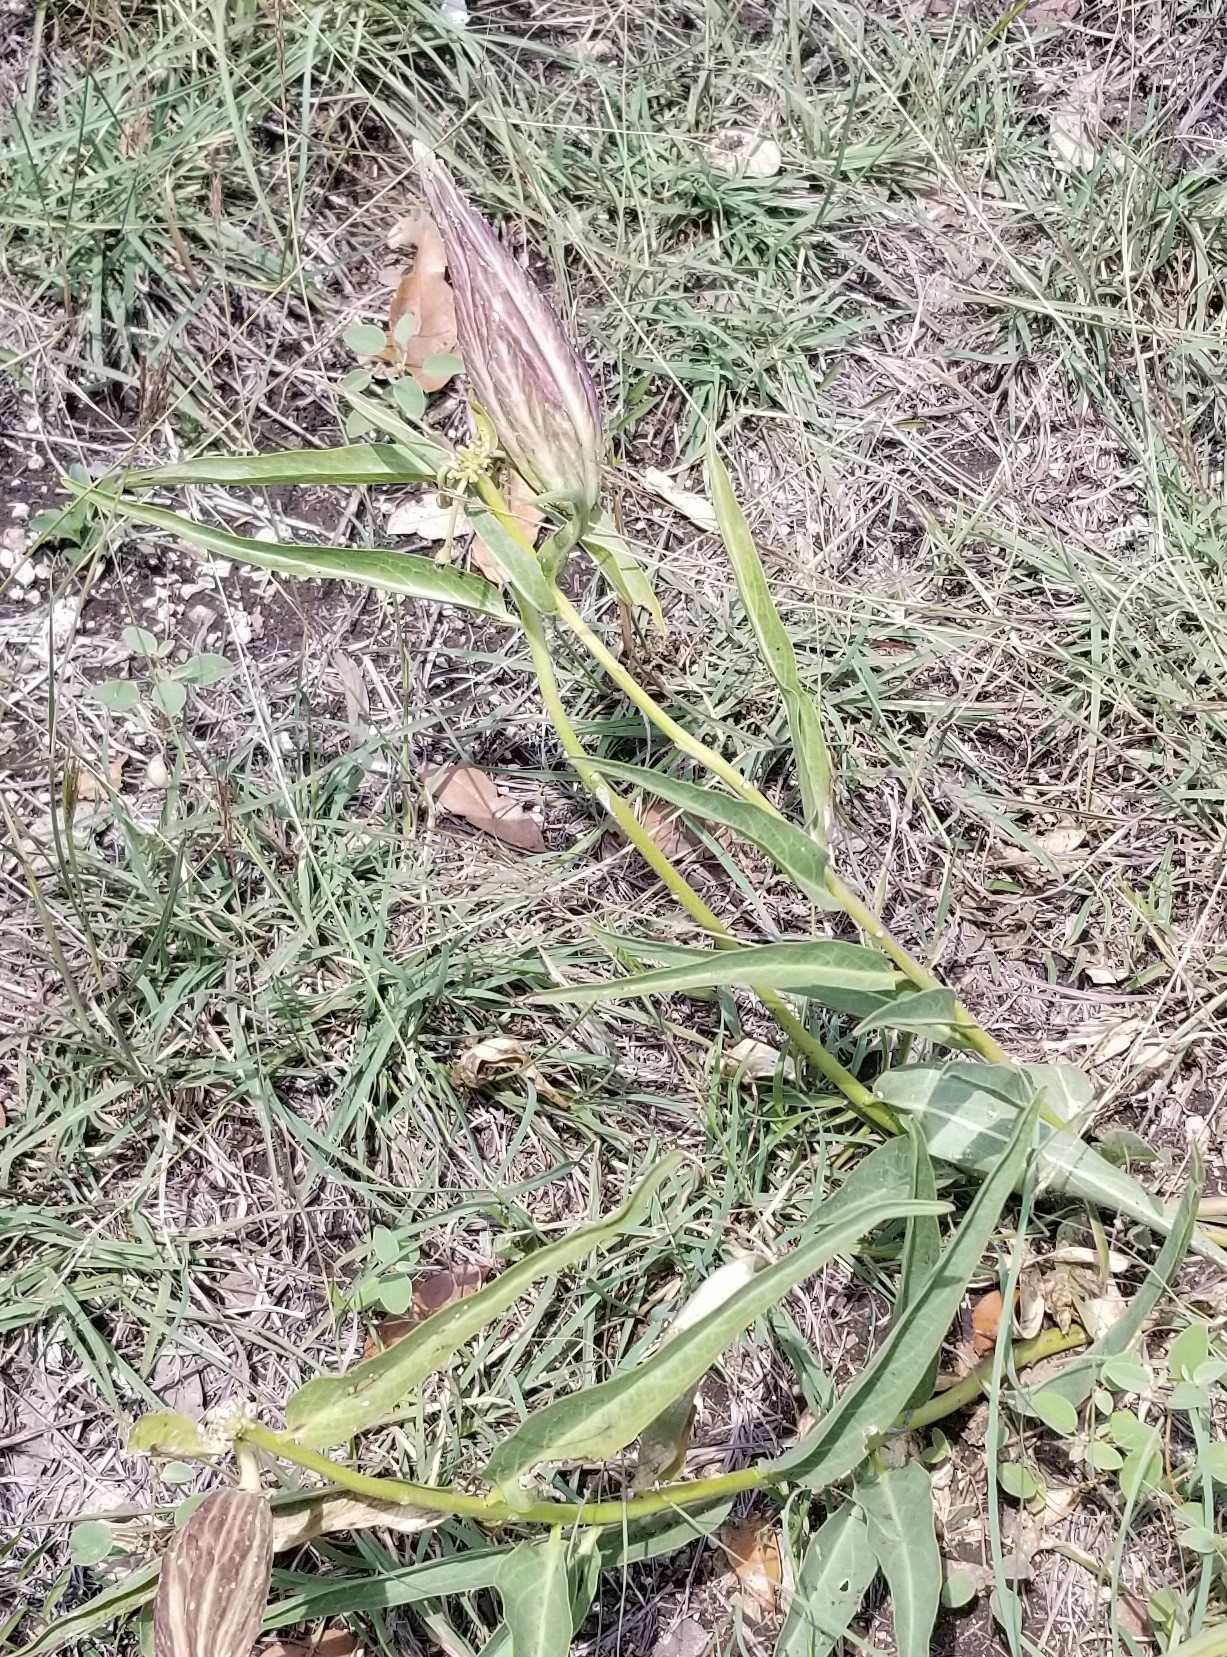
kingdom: Plantae
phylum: Tracheophyta
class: Magnoliopsida
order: Gentianales
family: Apocynaceae
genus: Asclepias
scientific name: Asclepias asperula
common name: Antelope horns
